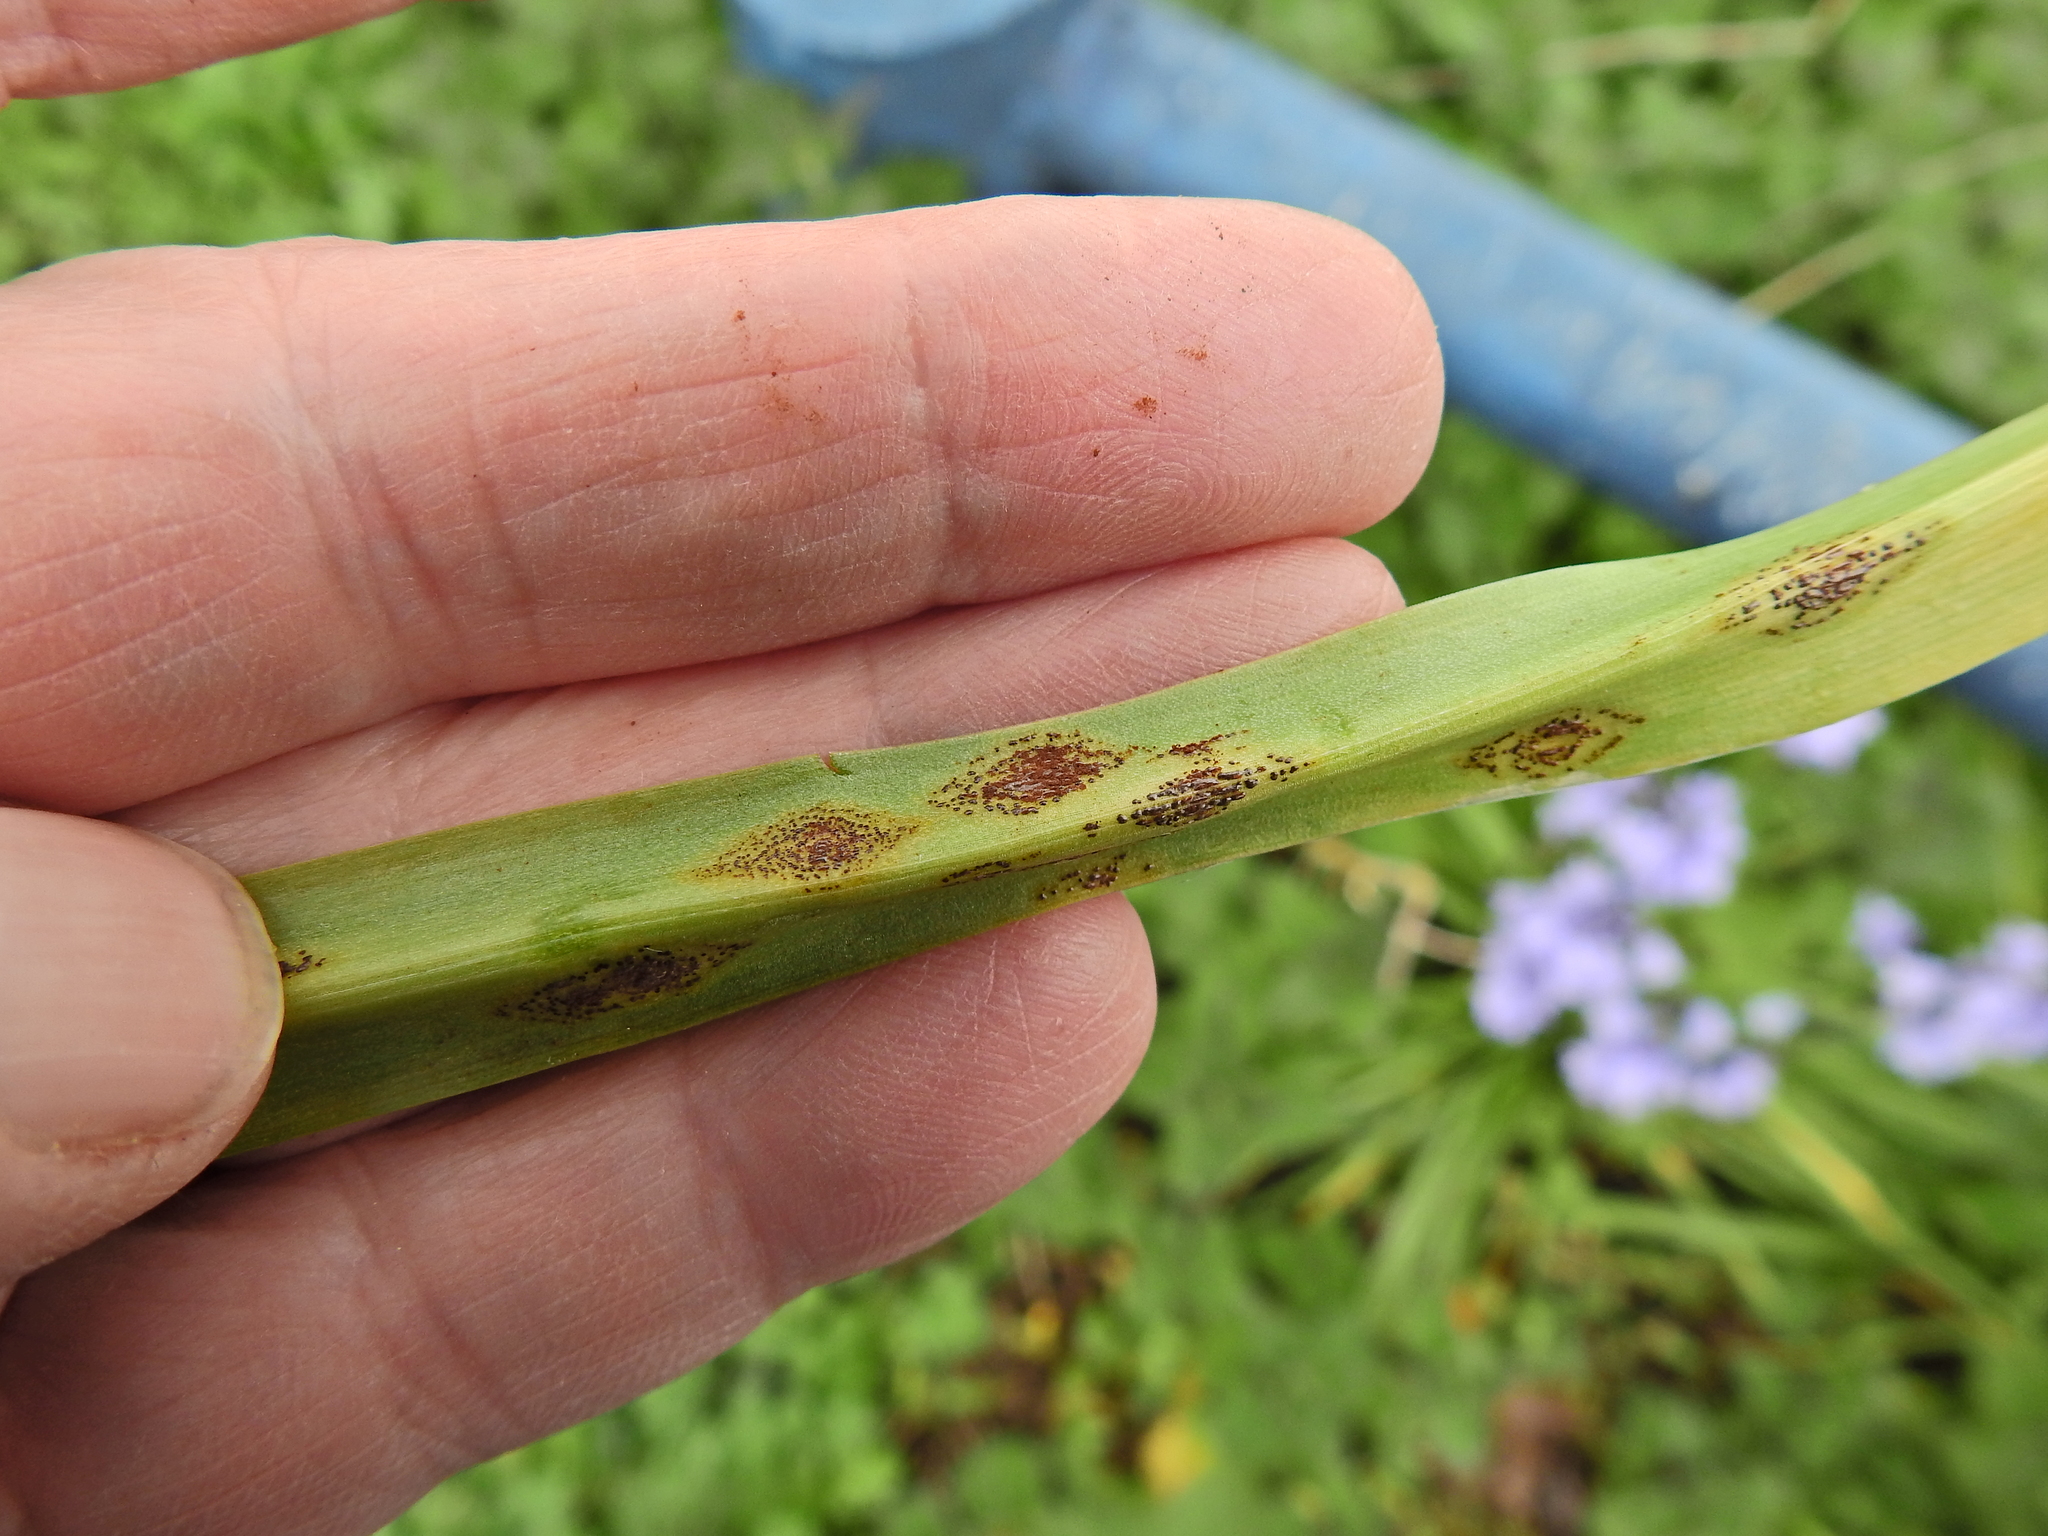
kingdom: Fungi
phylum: Basidiomycota
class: Pucciniomycetes
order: Pucciniales
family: Pucciniaceae
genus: Uromyces
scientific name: Uromyces hyacinthi
